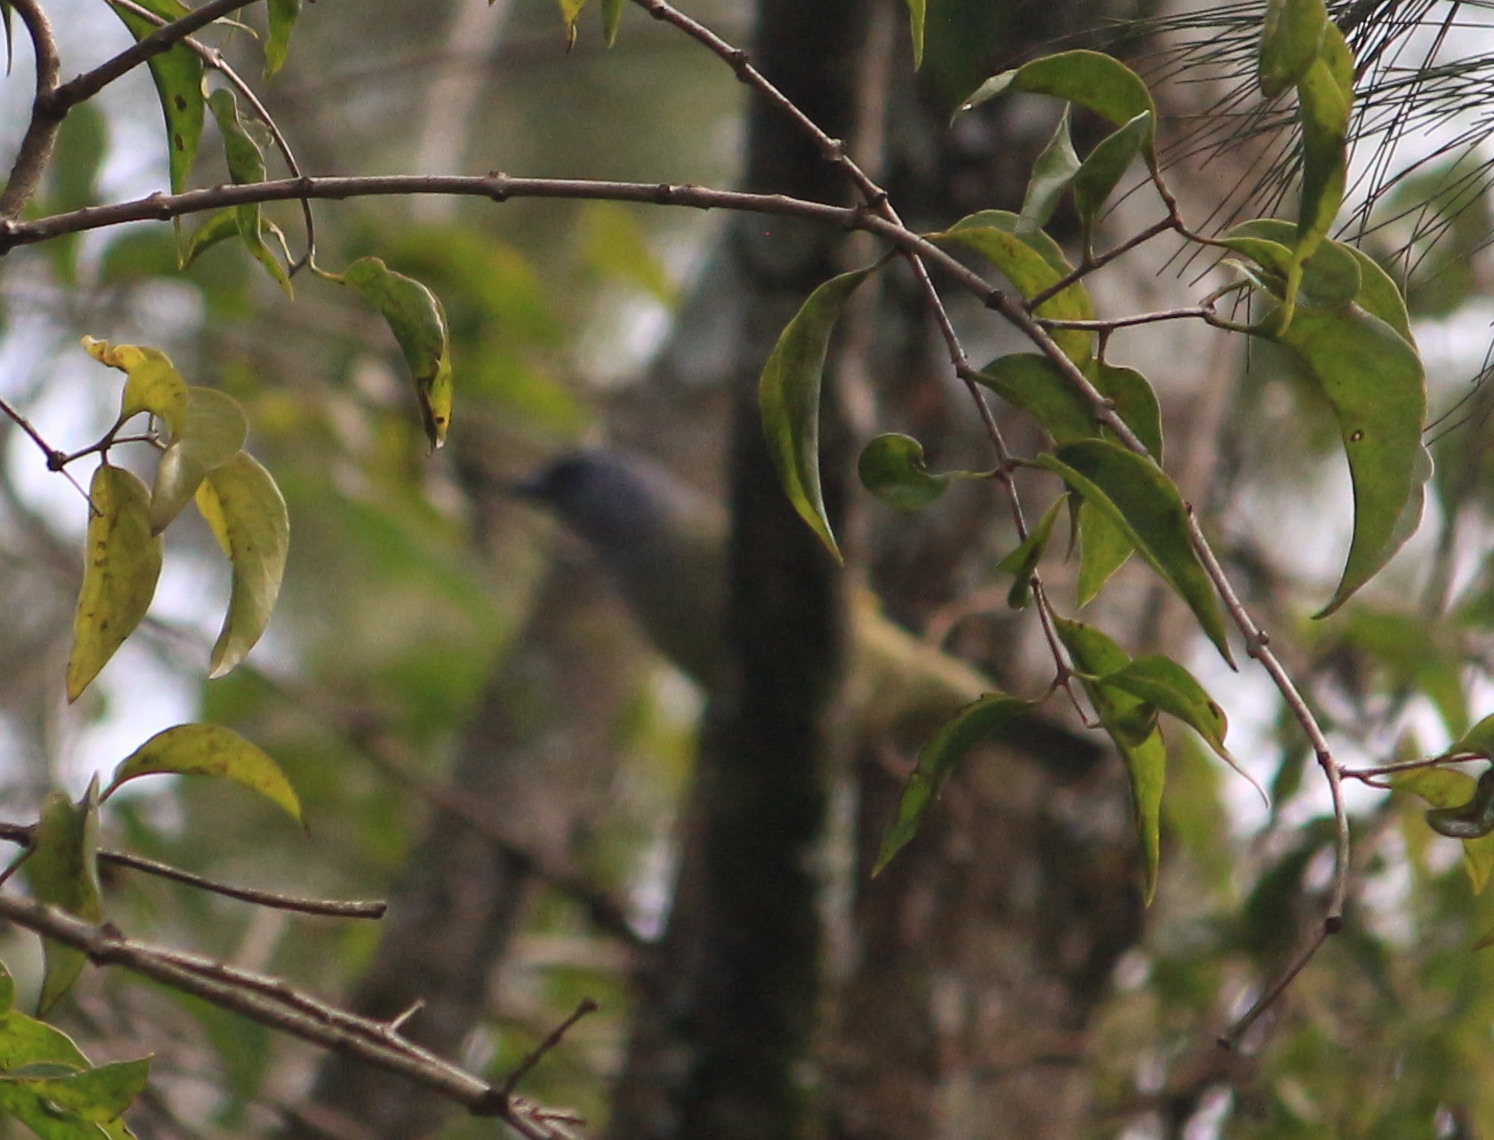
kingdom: Animalia
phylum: Chordata
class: Aves
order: Passeriformes
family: Thraupidae
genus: Thraupis
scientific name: Thraupis abbas
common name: Yellow-winged tanager
